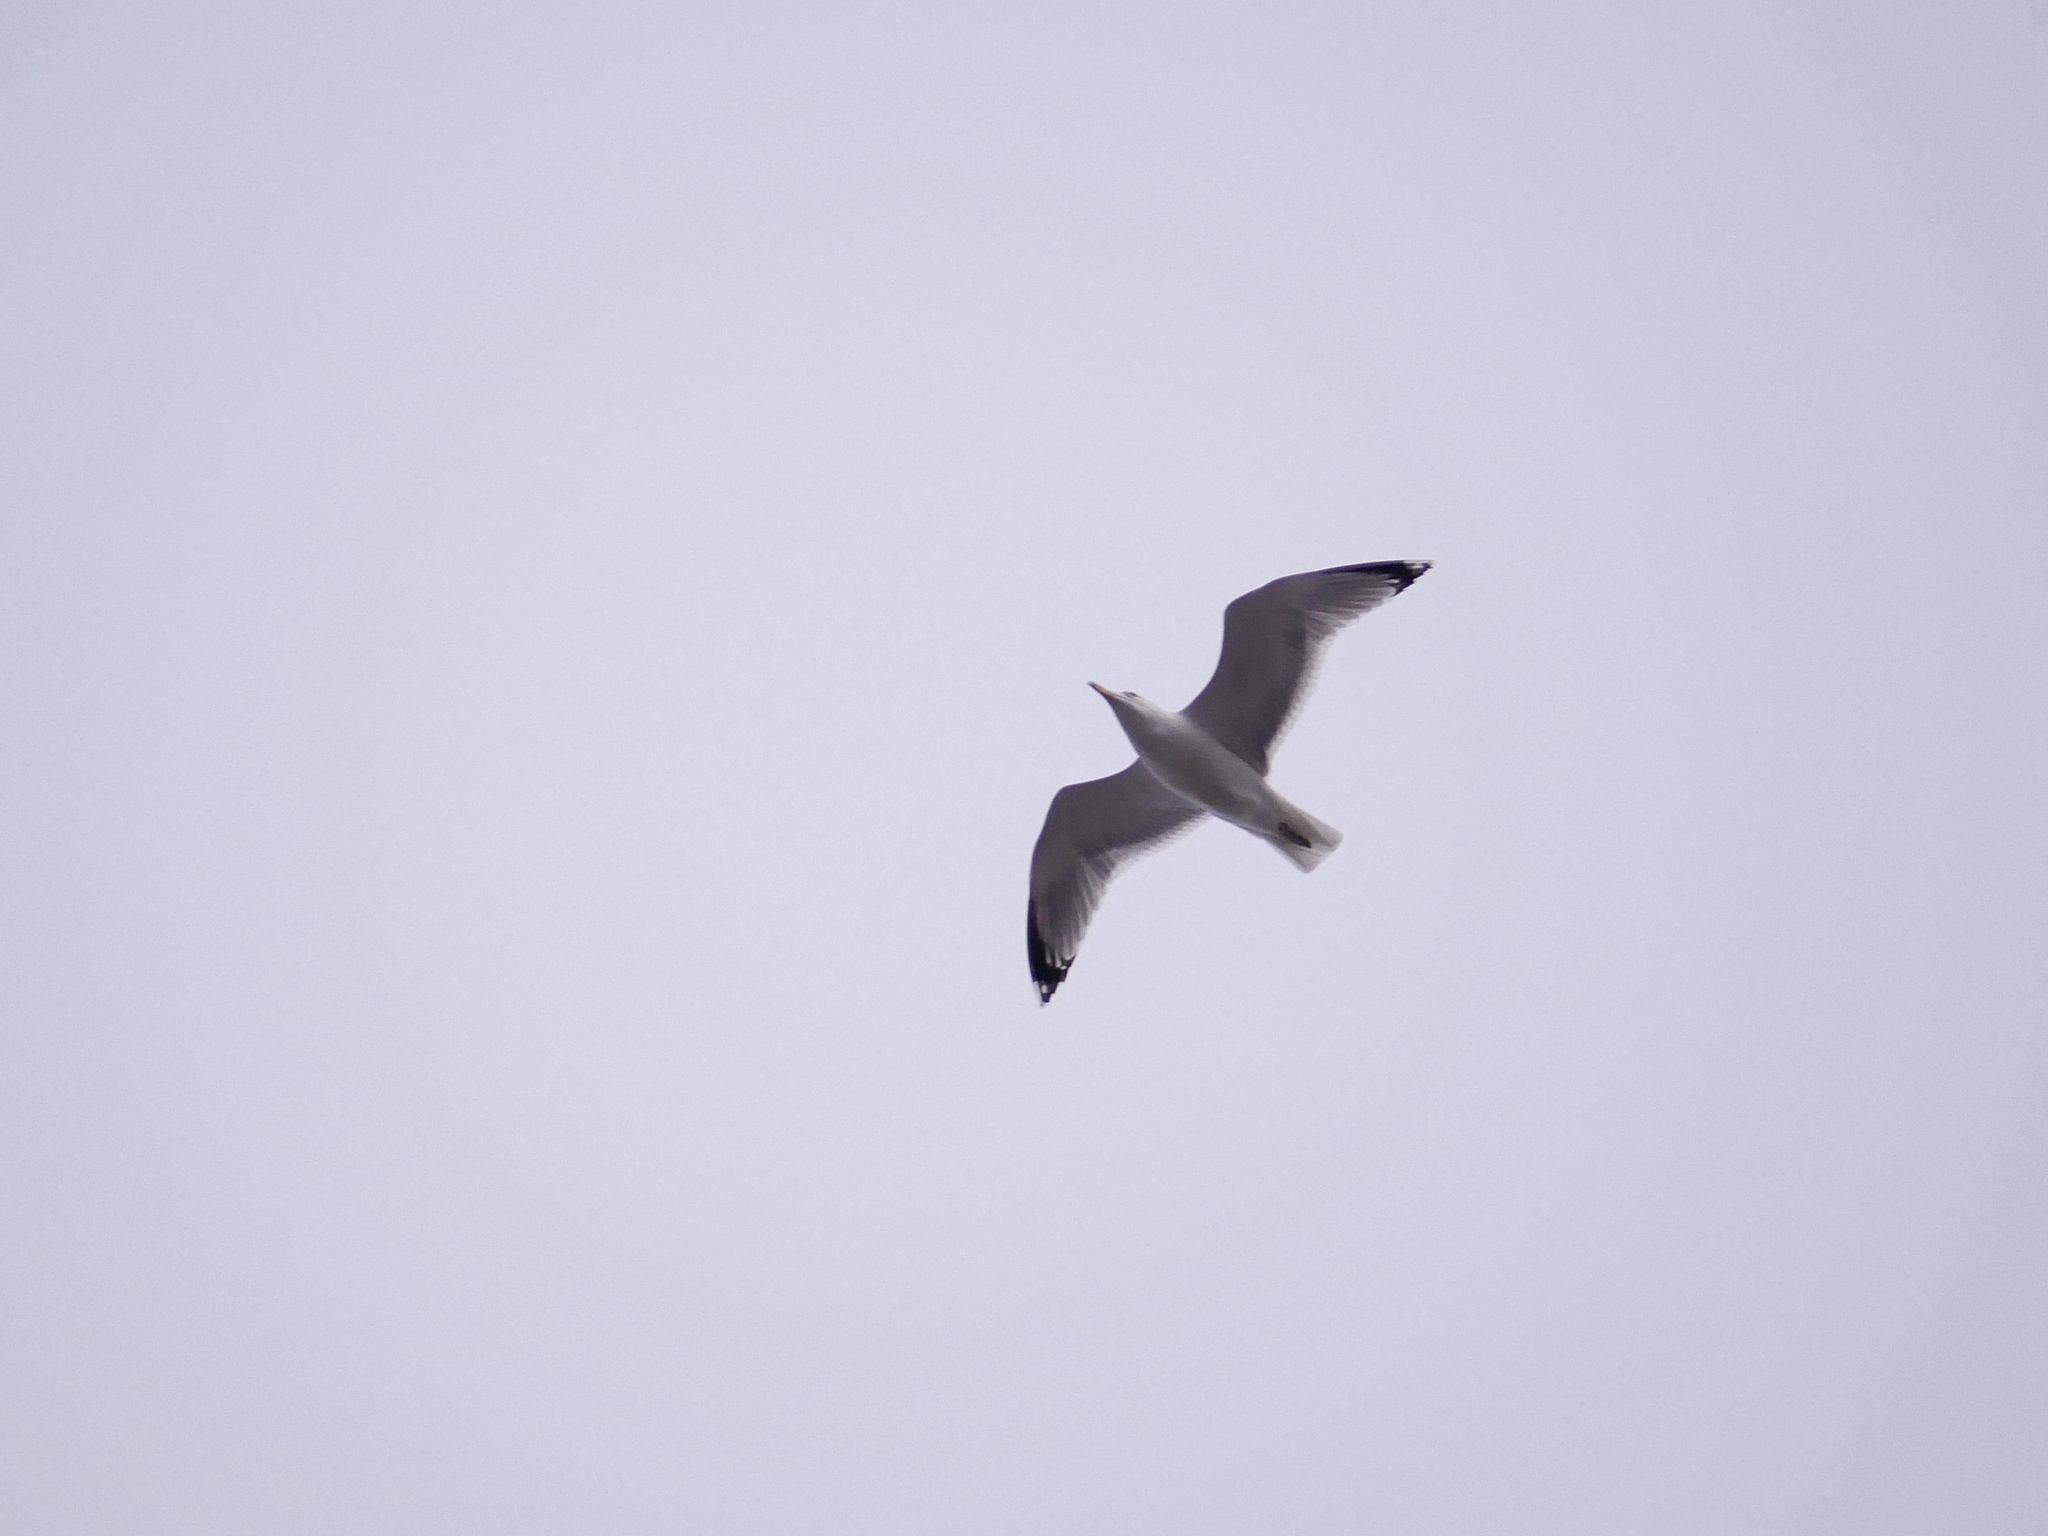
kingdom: Animalia
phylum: Chordata
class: Aves
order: Charadriiformes
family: Laridae
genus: Larus
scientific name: Larus argentatus
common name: Herring gull
